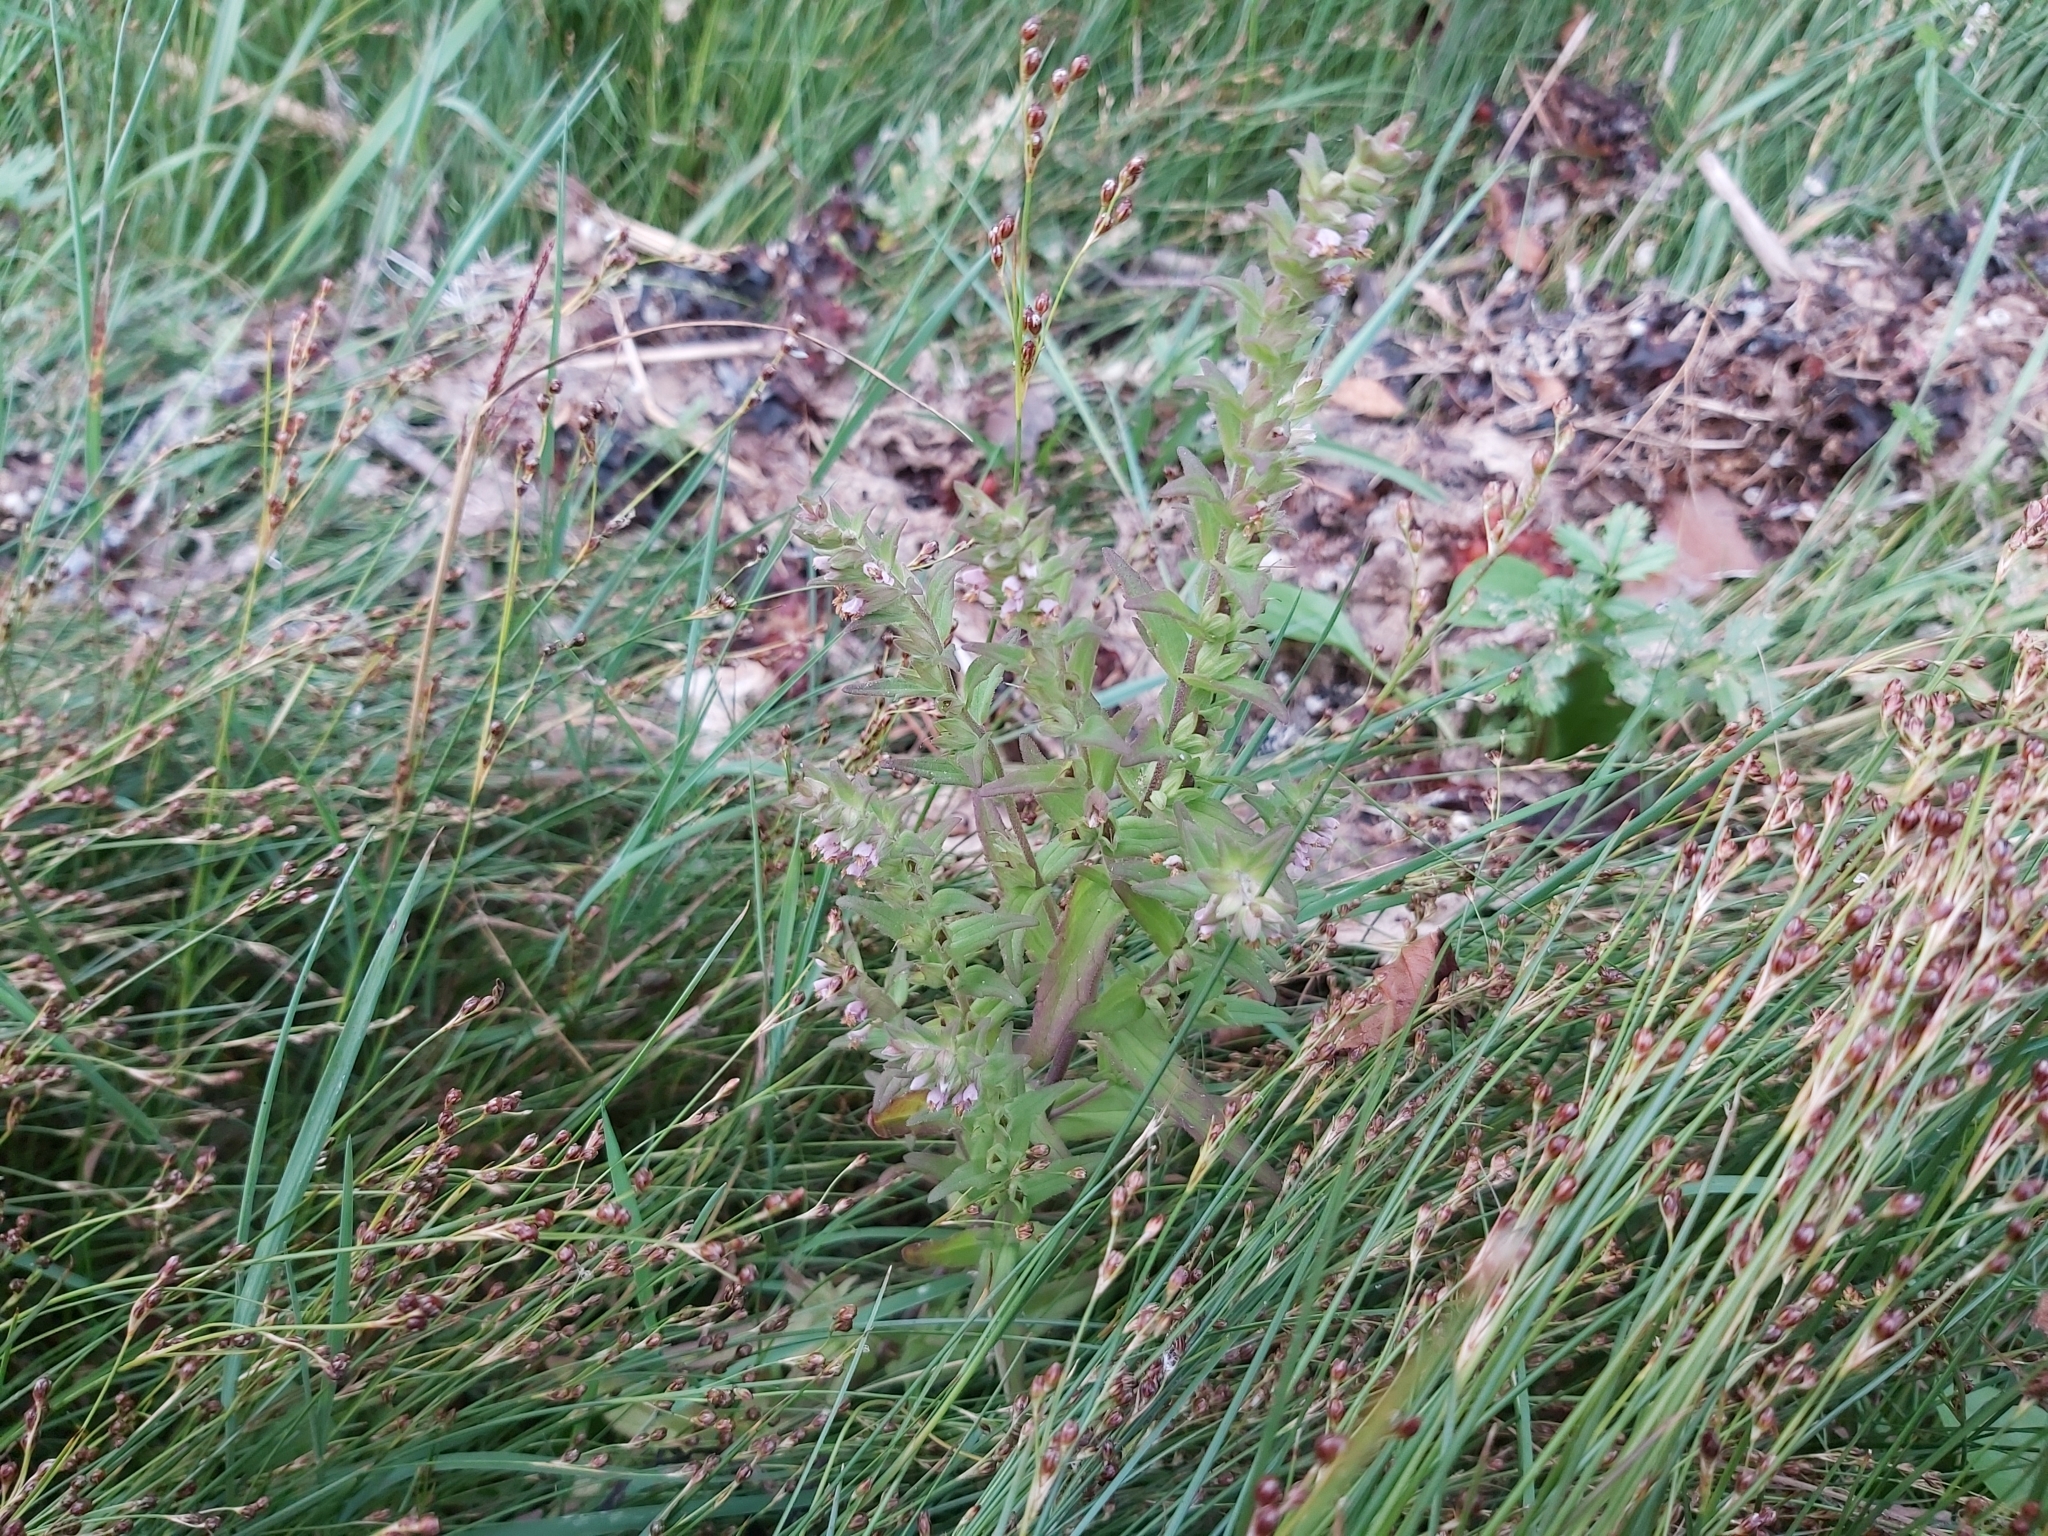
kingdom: Plantae
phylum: Tracheophyta
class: Magnoliopsida
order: Lamiales
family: Orobanchaceae
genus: Odontites
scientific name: Odontites vulgaris
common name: Broomrape
